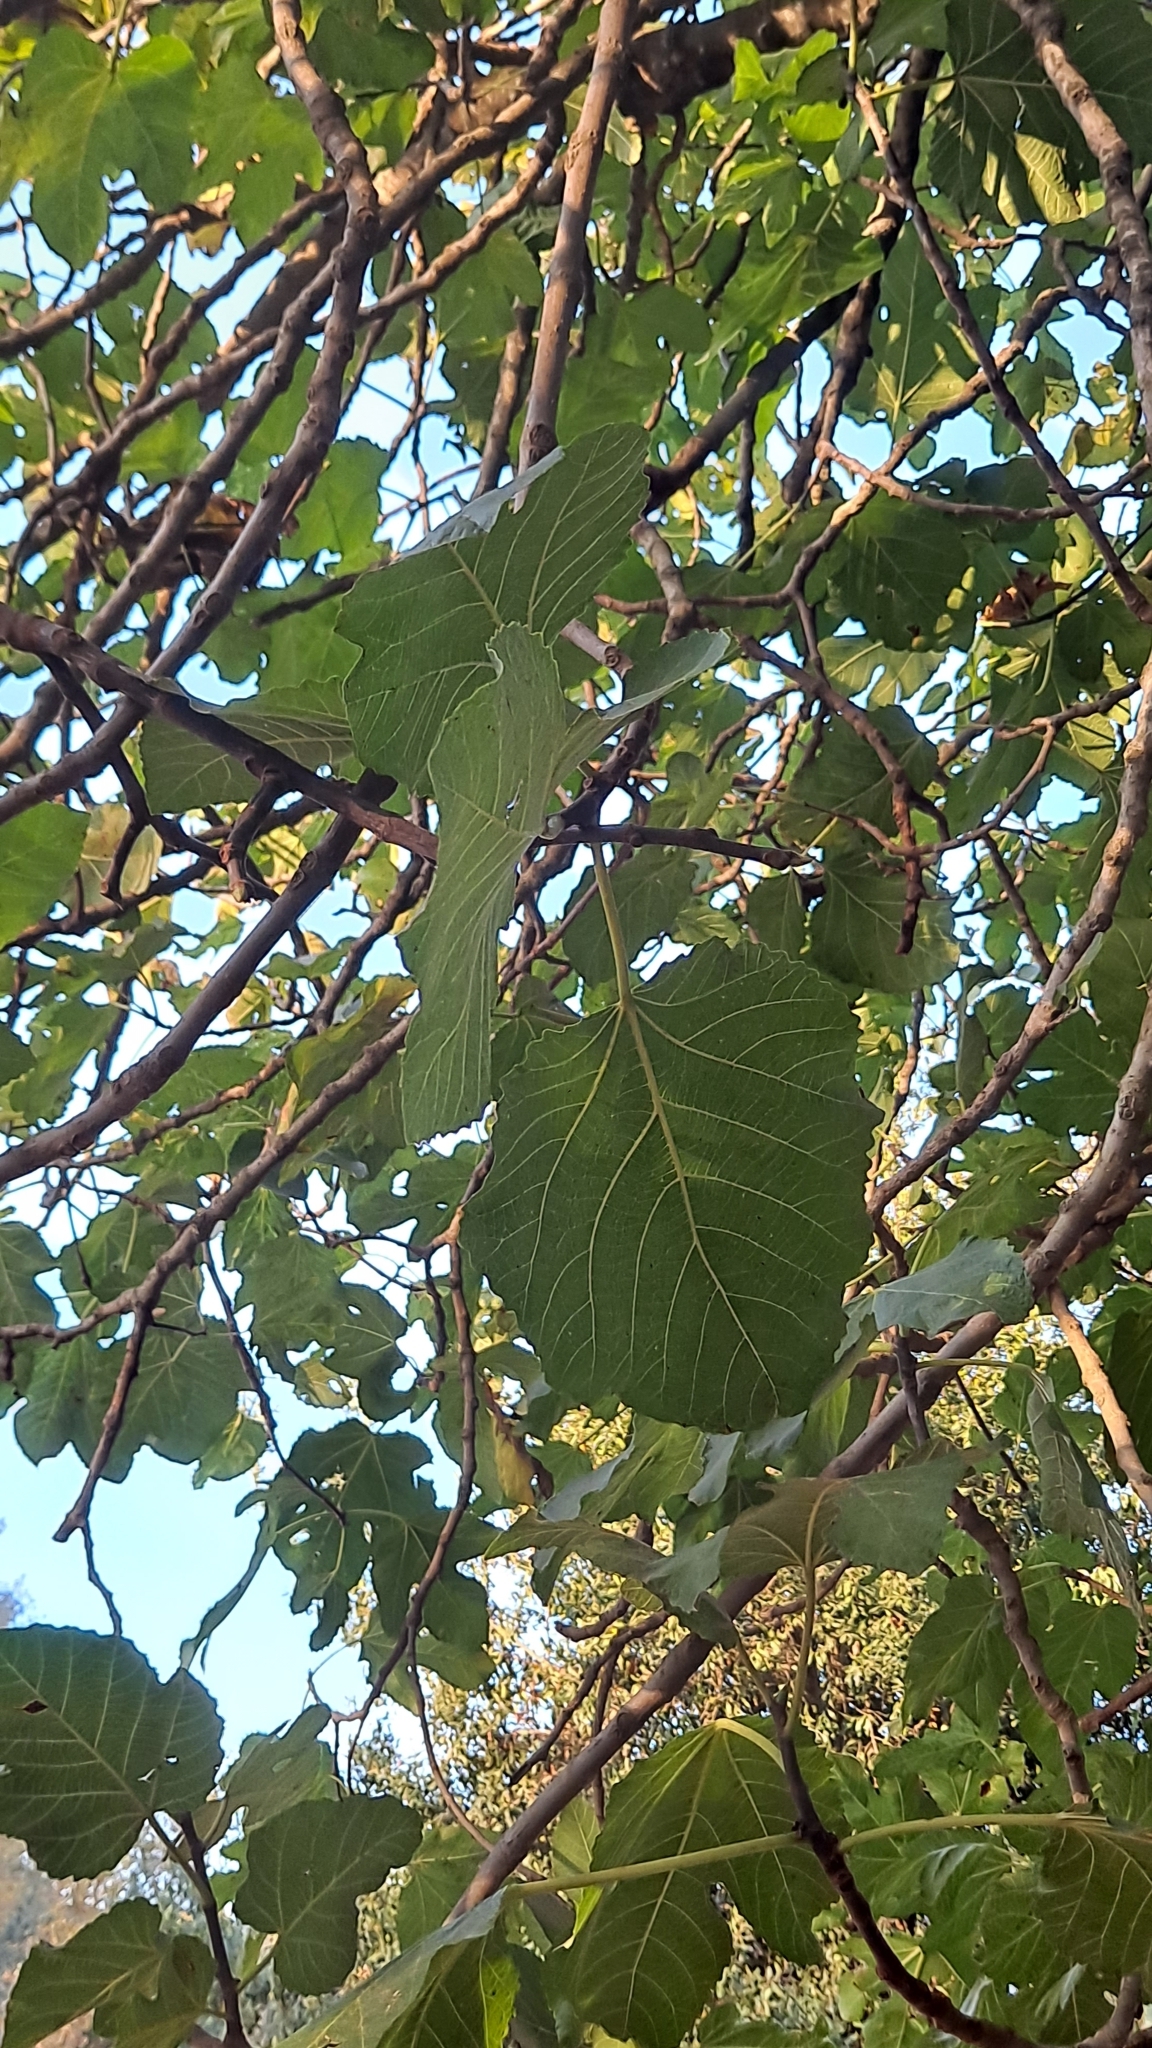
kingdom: Plantae
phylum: Tracheophyta
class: Magnoliopsida
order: Rosales
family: Moraceae
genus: Ficus
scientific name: Ficus carica
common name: Fig
